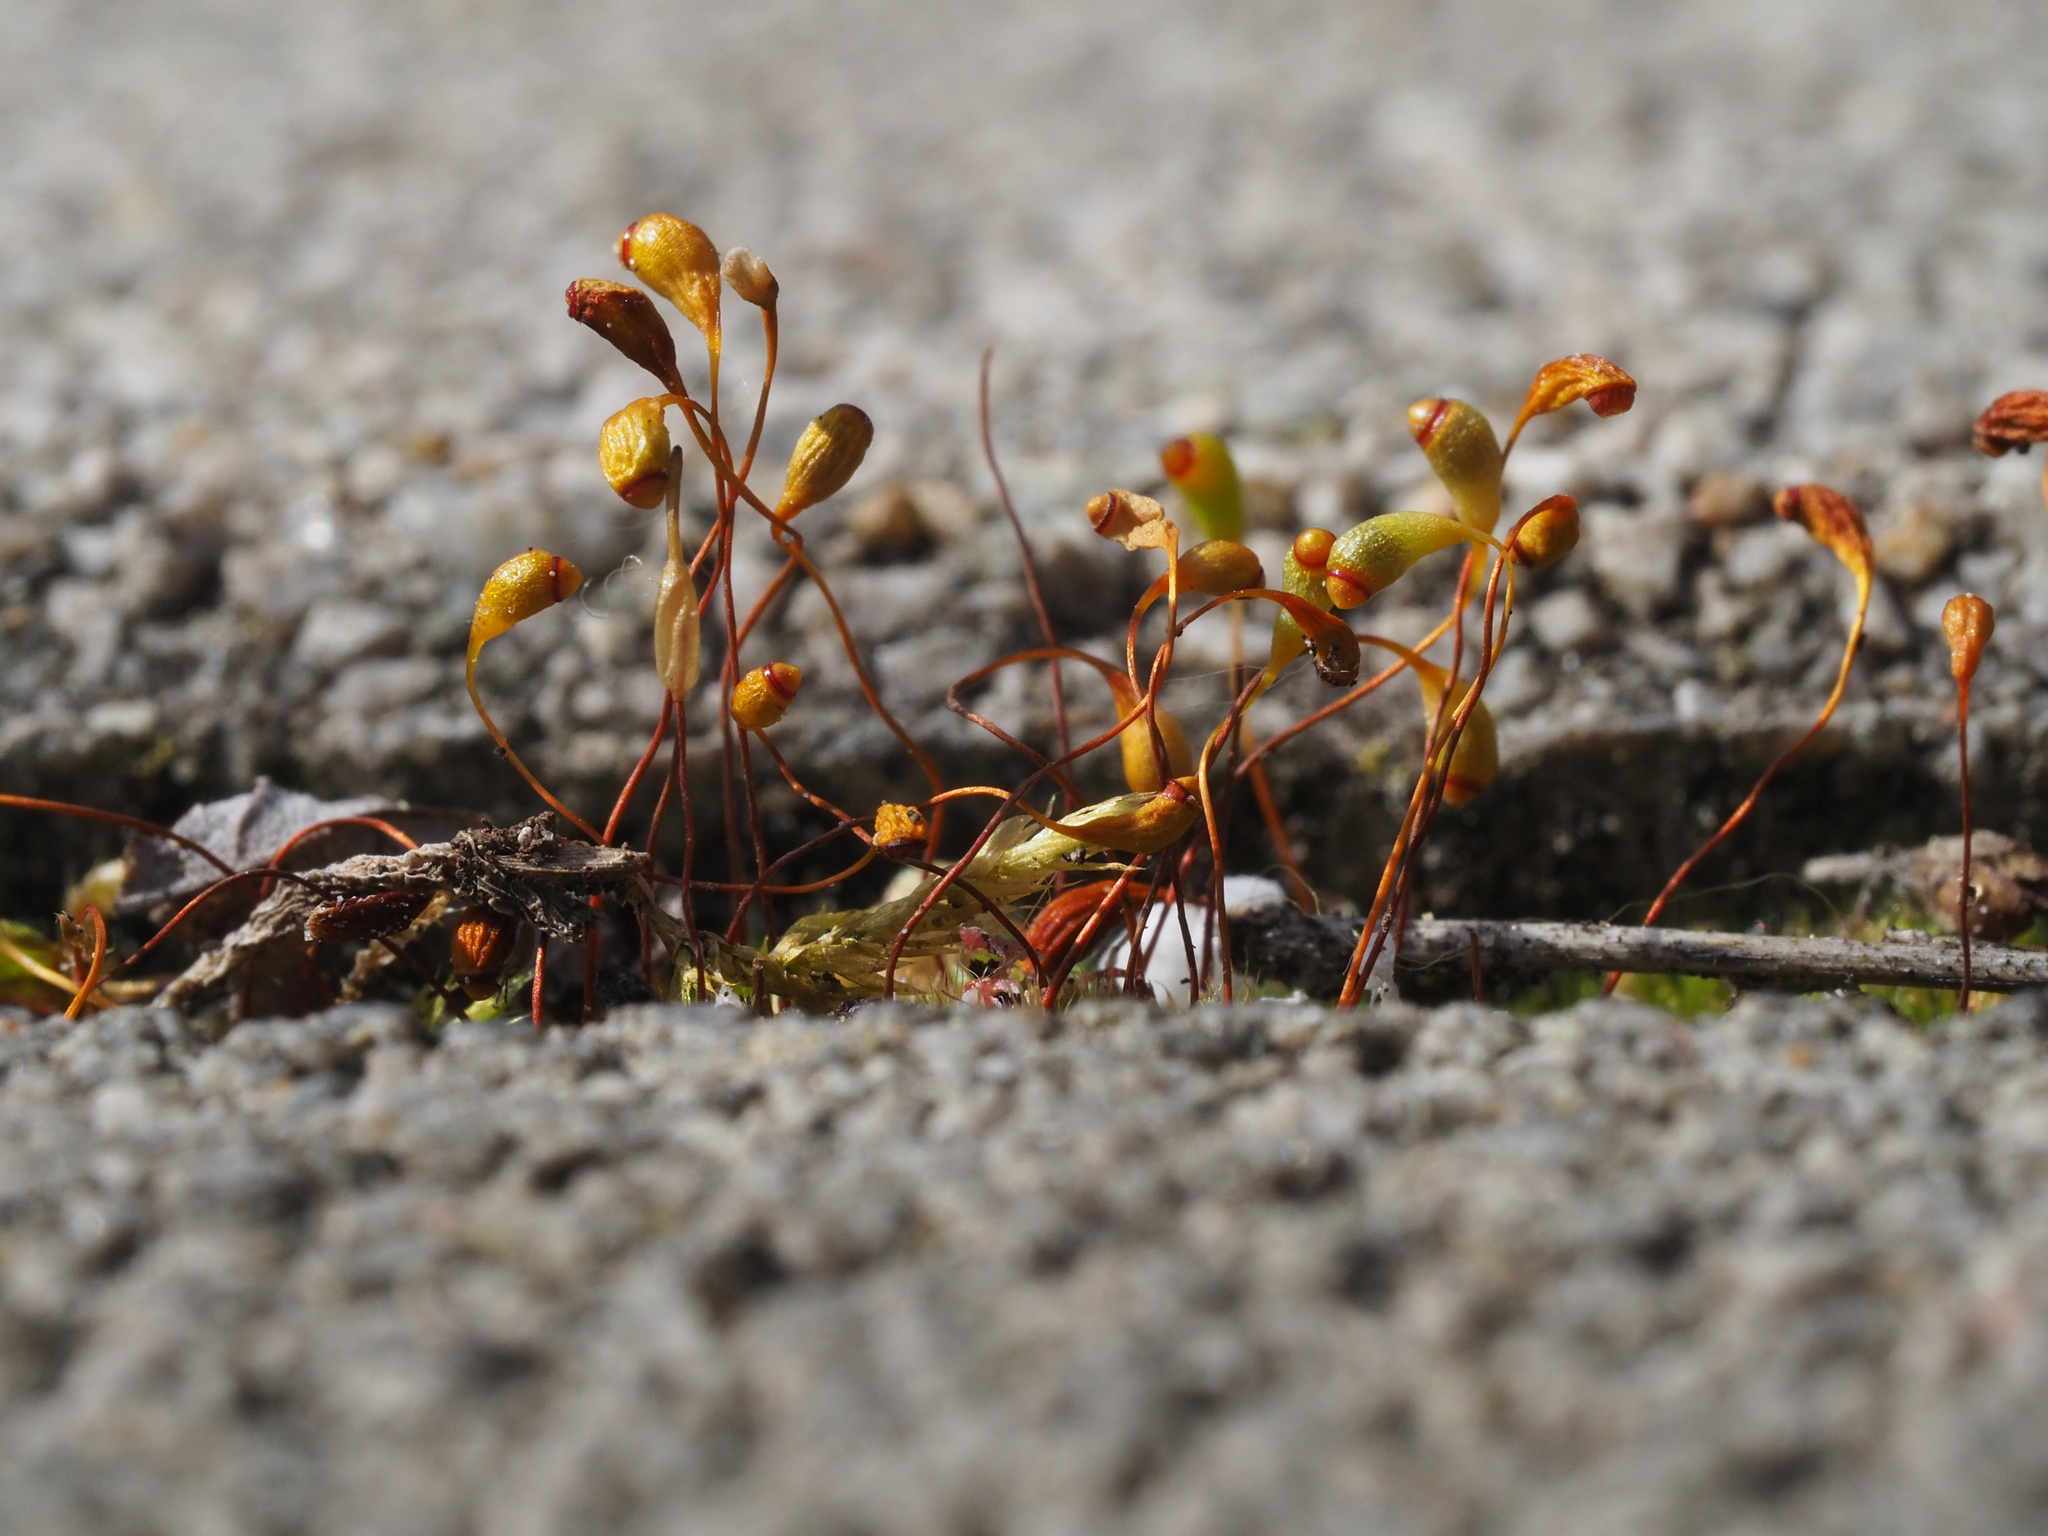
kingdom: Plantae
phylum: Bryophyta
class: Bryopsida
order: Funariales
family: Funariaceae
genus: Funaria
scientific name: Funaria hygrometrica
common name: Common cord moss
